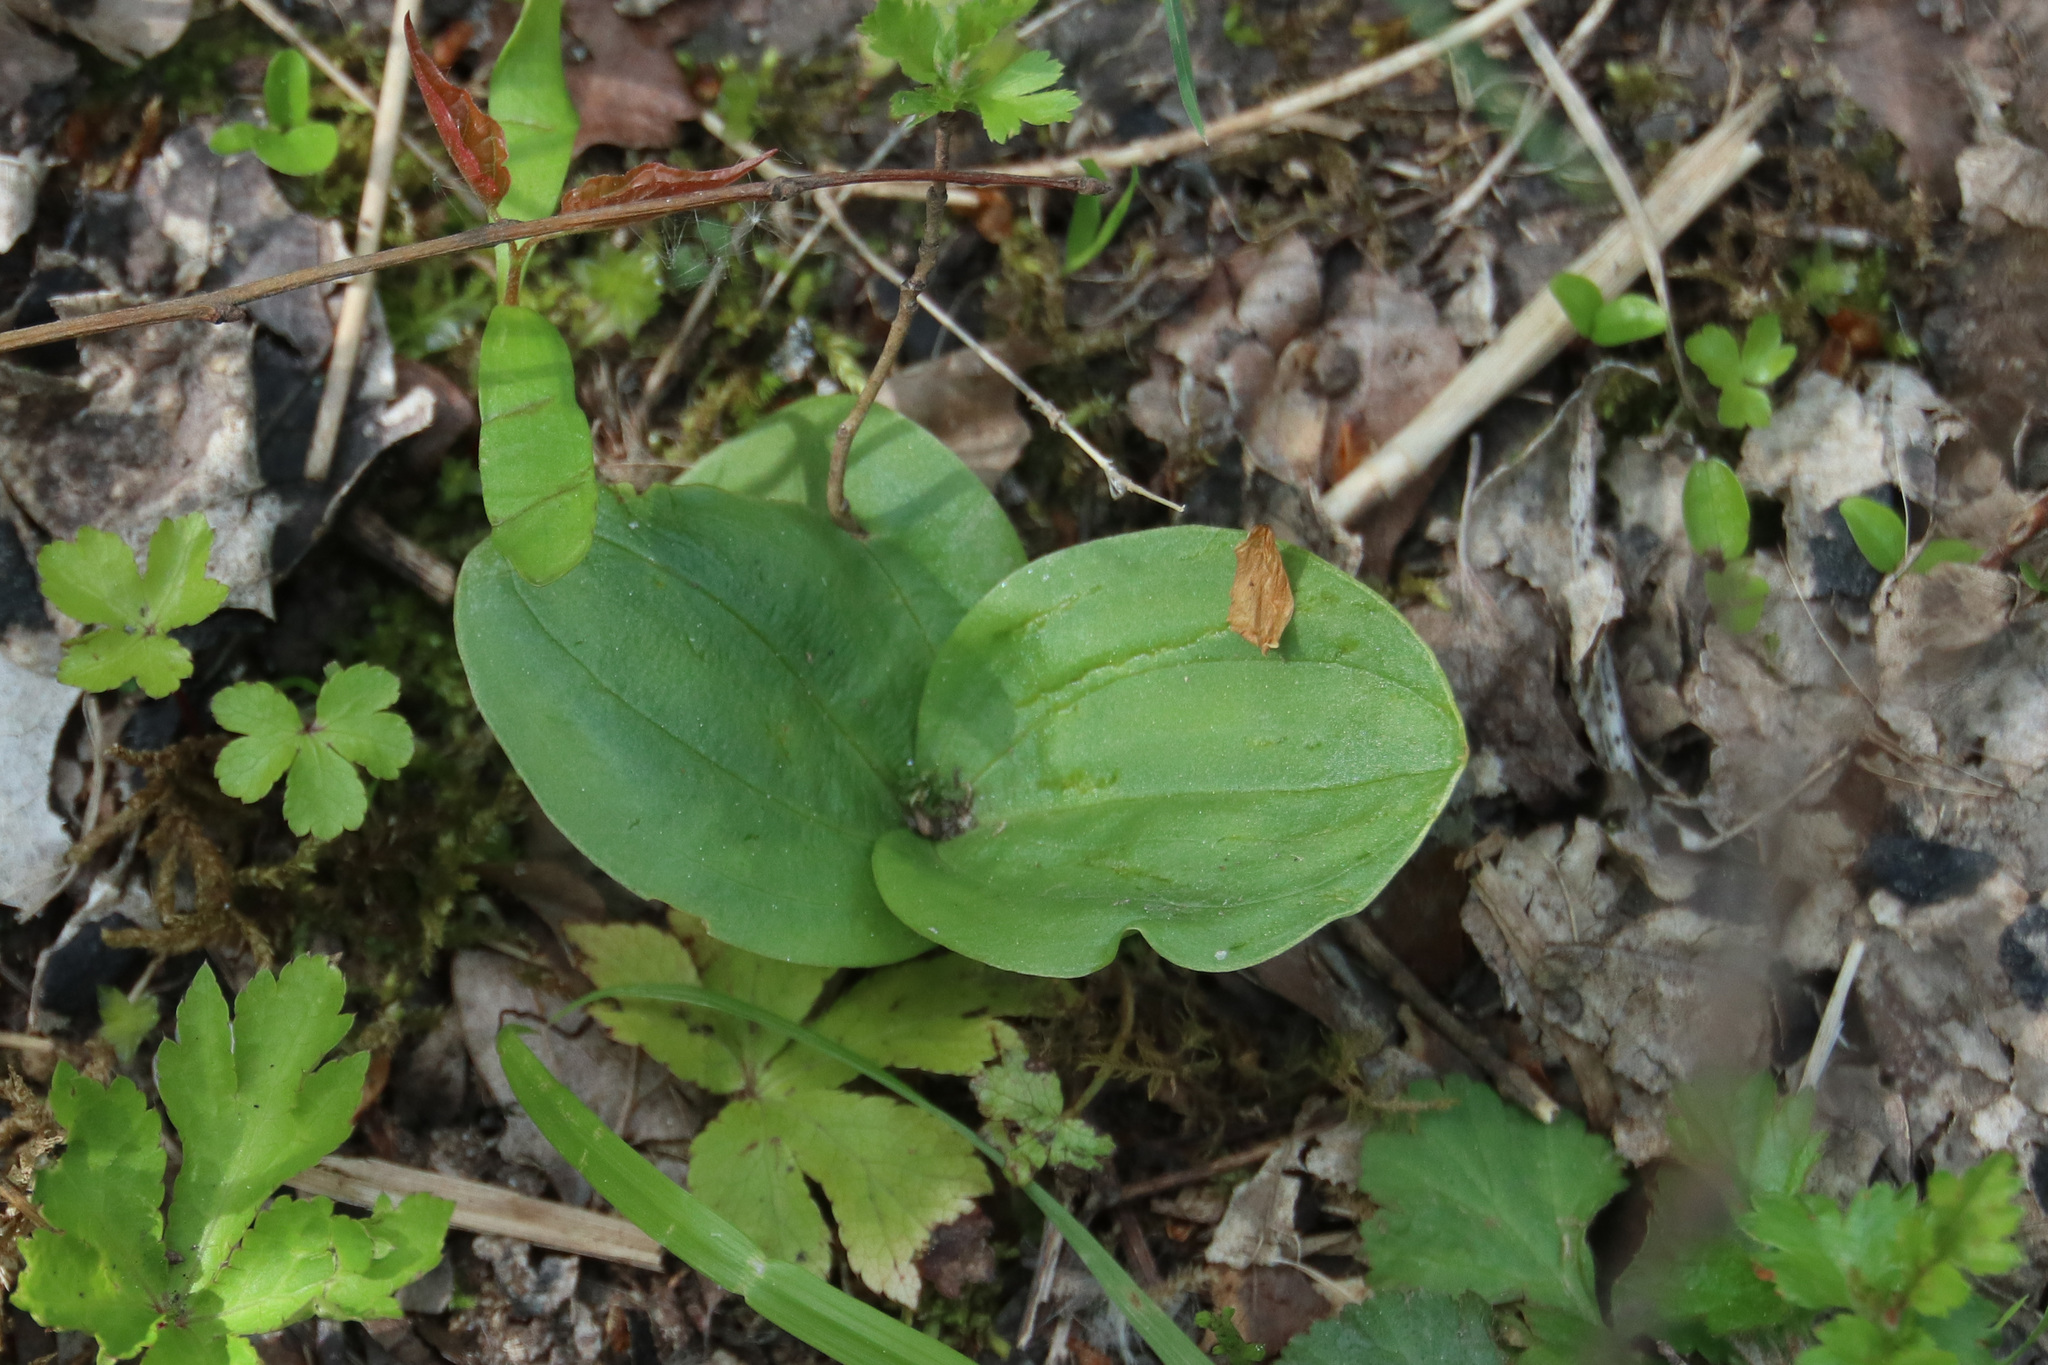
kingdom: Plantae
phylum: Tracheophyta
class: Liliopsida
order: Asparagales
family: Orchidaceae
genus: Neottia
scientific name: Neottia ovata
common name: Common twayblade
